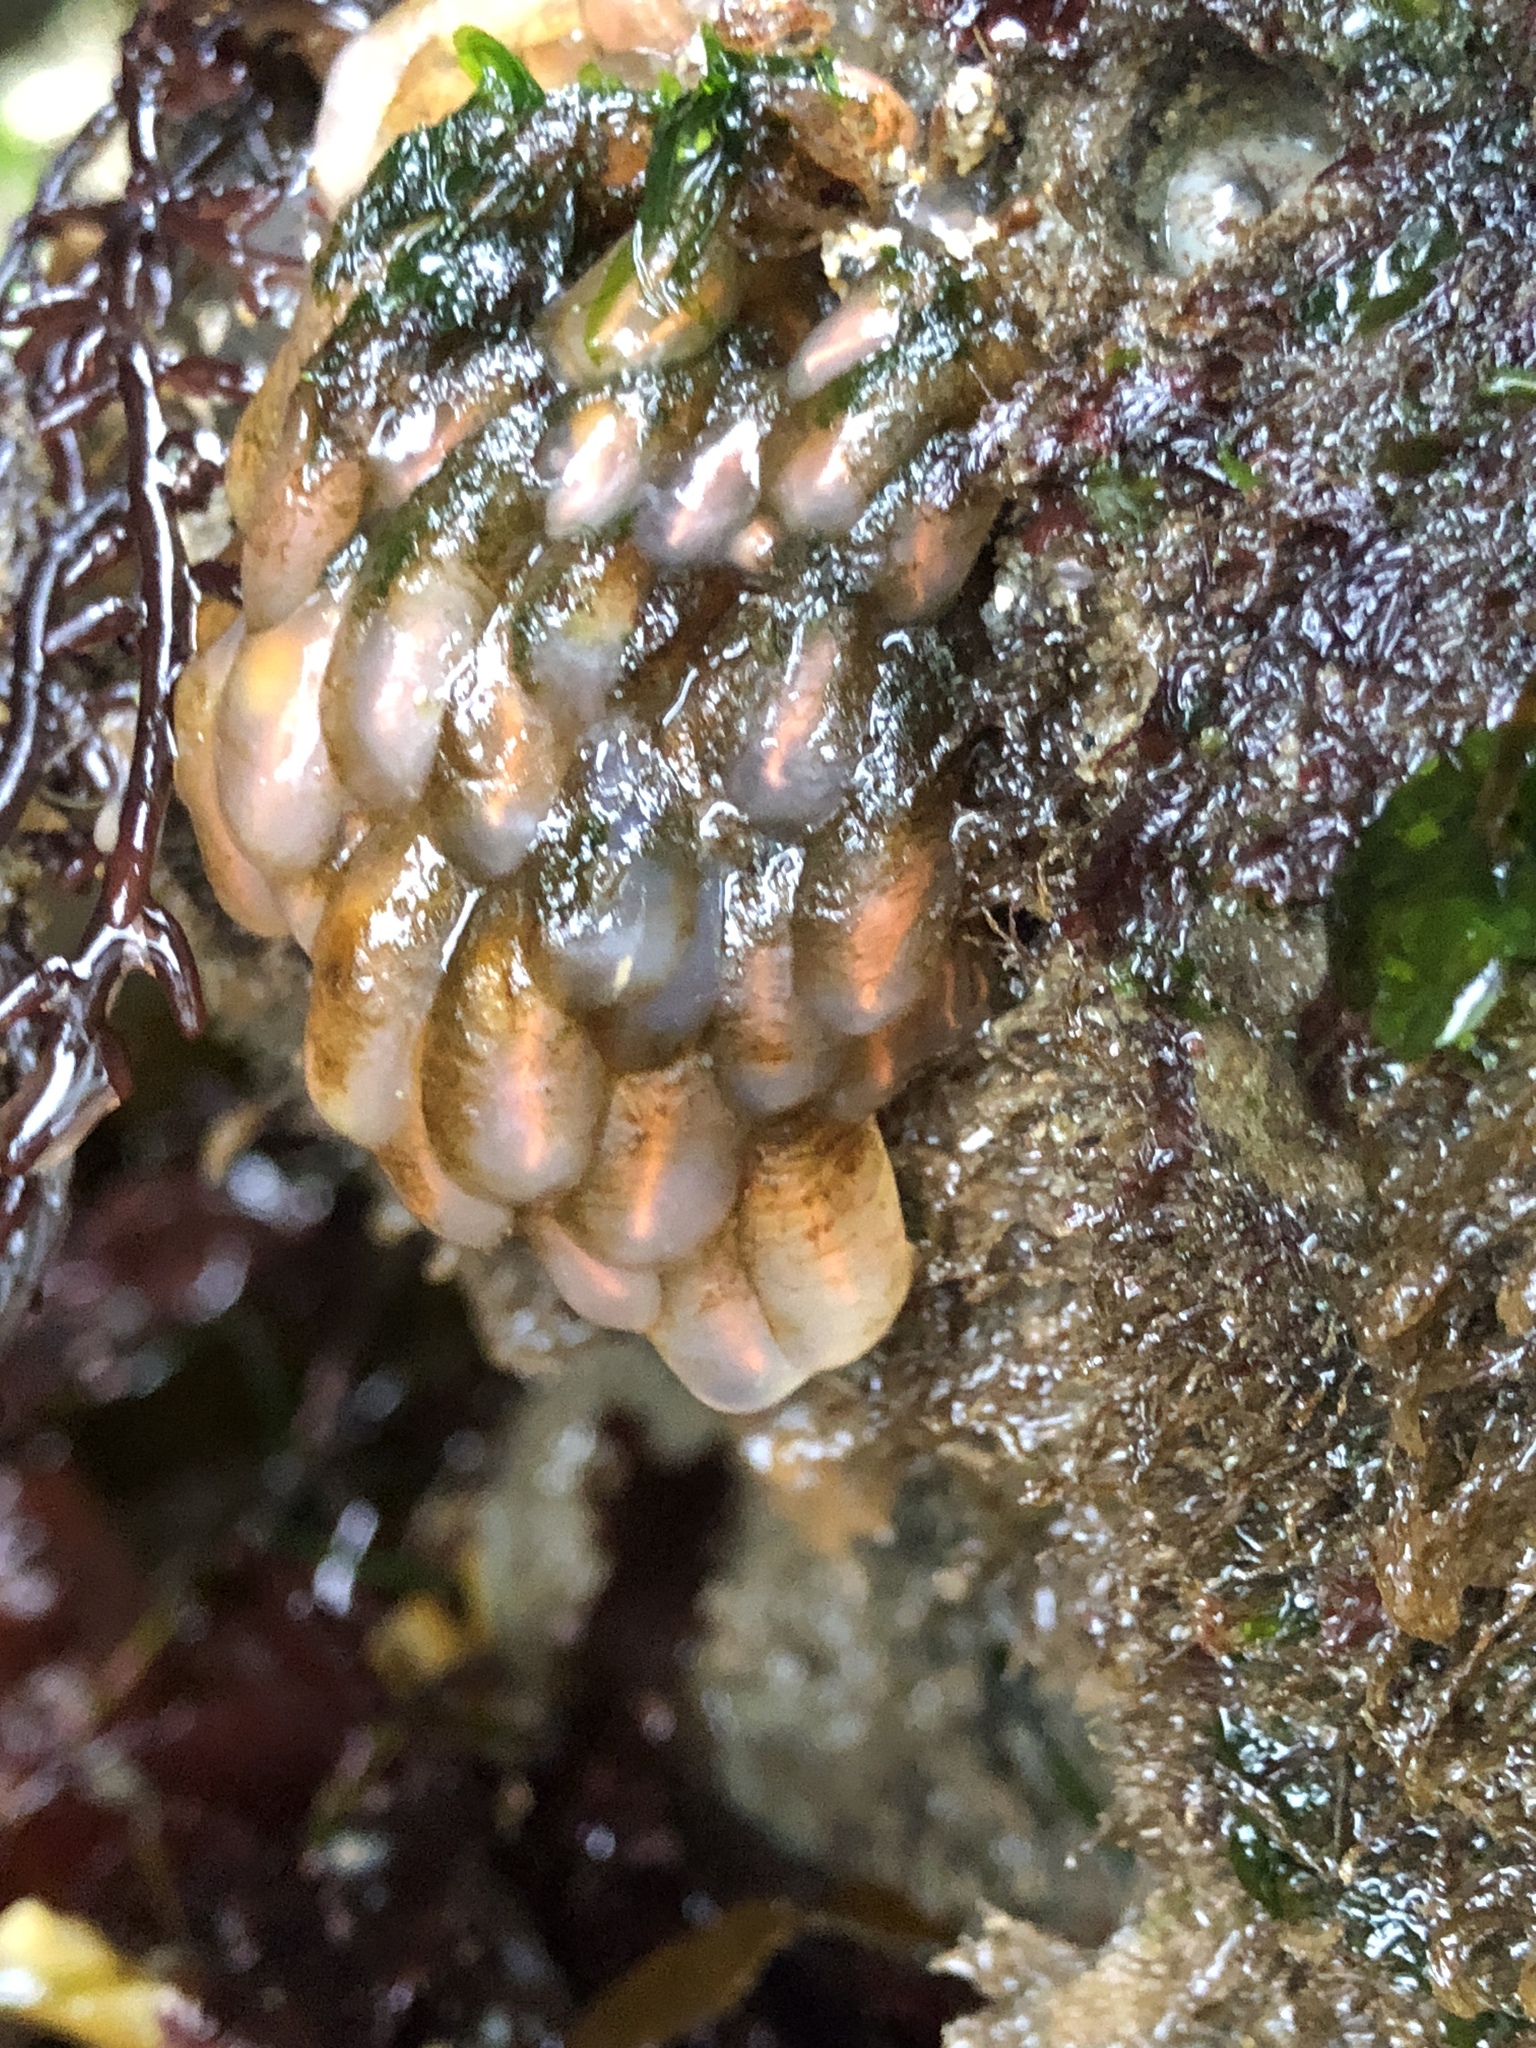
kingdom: Animalia
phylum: Chordata
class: Ascidiacea
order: Aplousobranchia
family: Clavelinidae
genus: Clavelina
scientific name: Clavelina huntsmani
